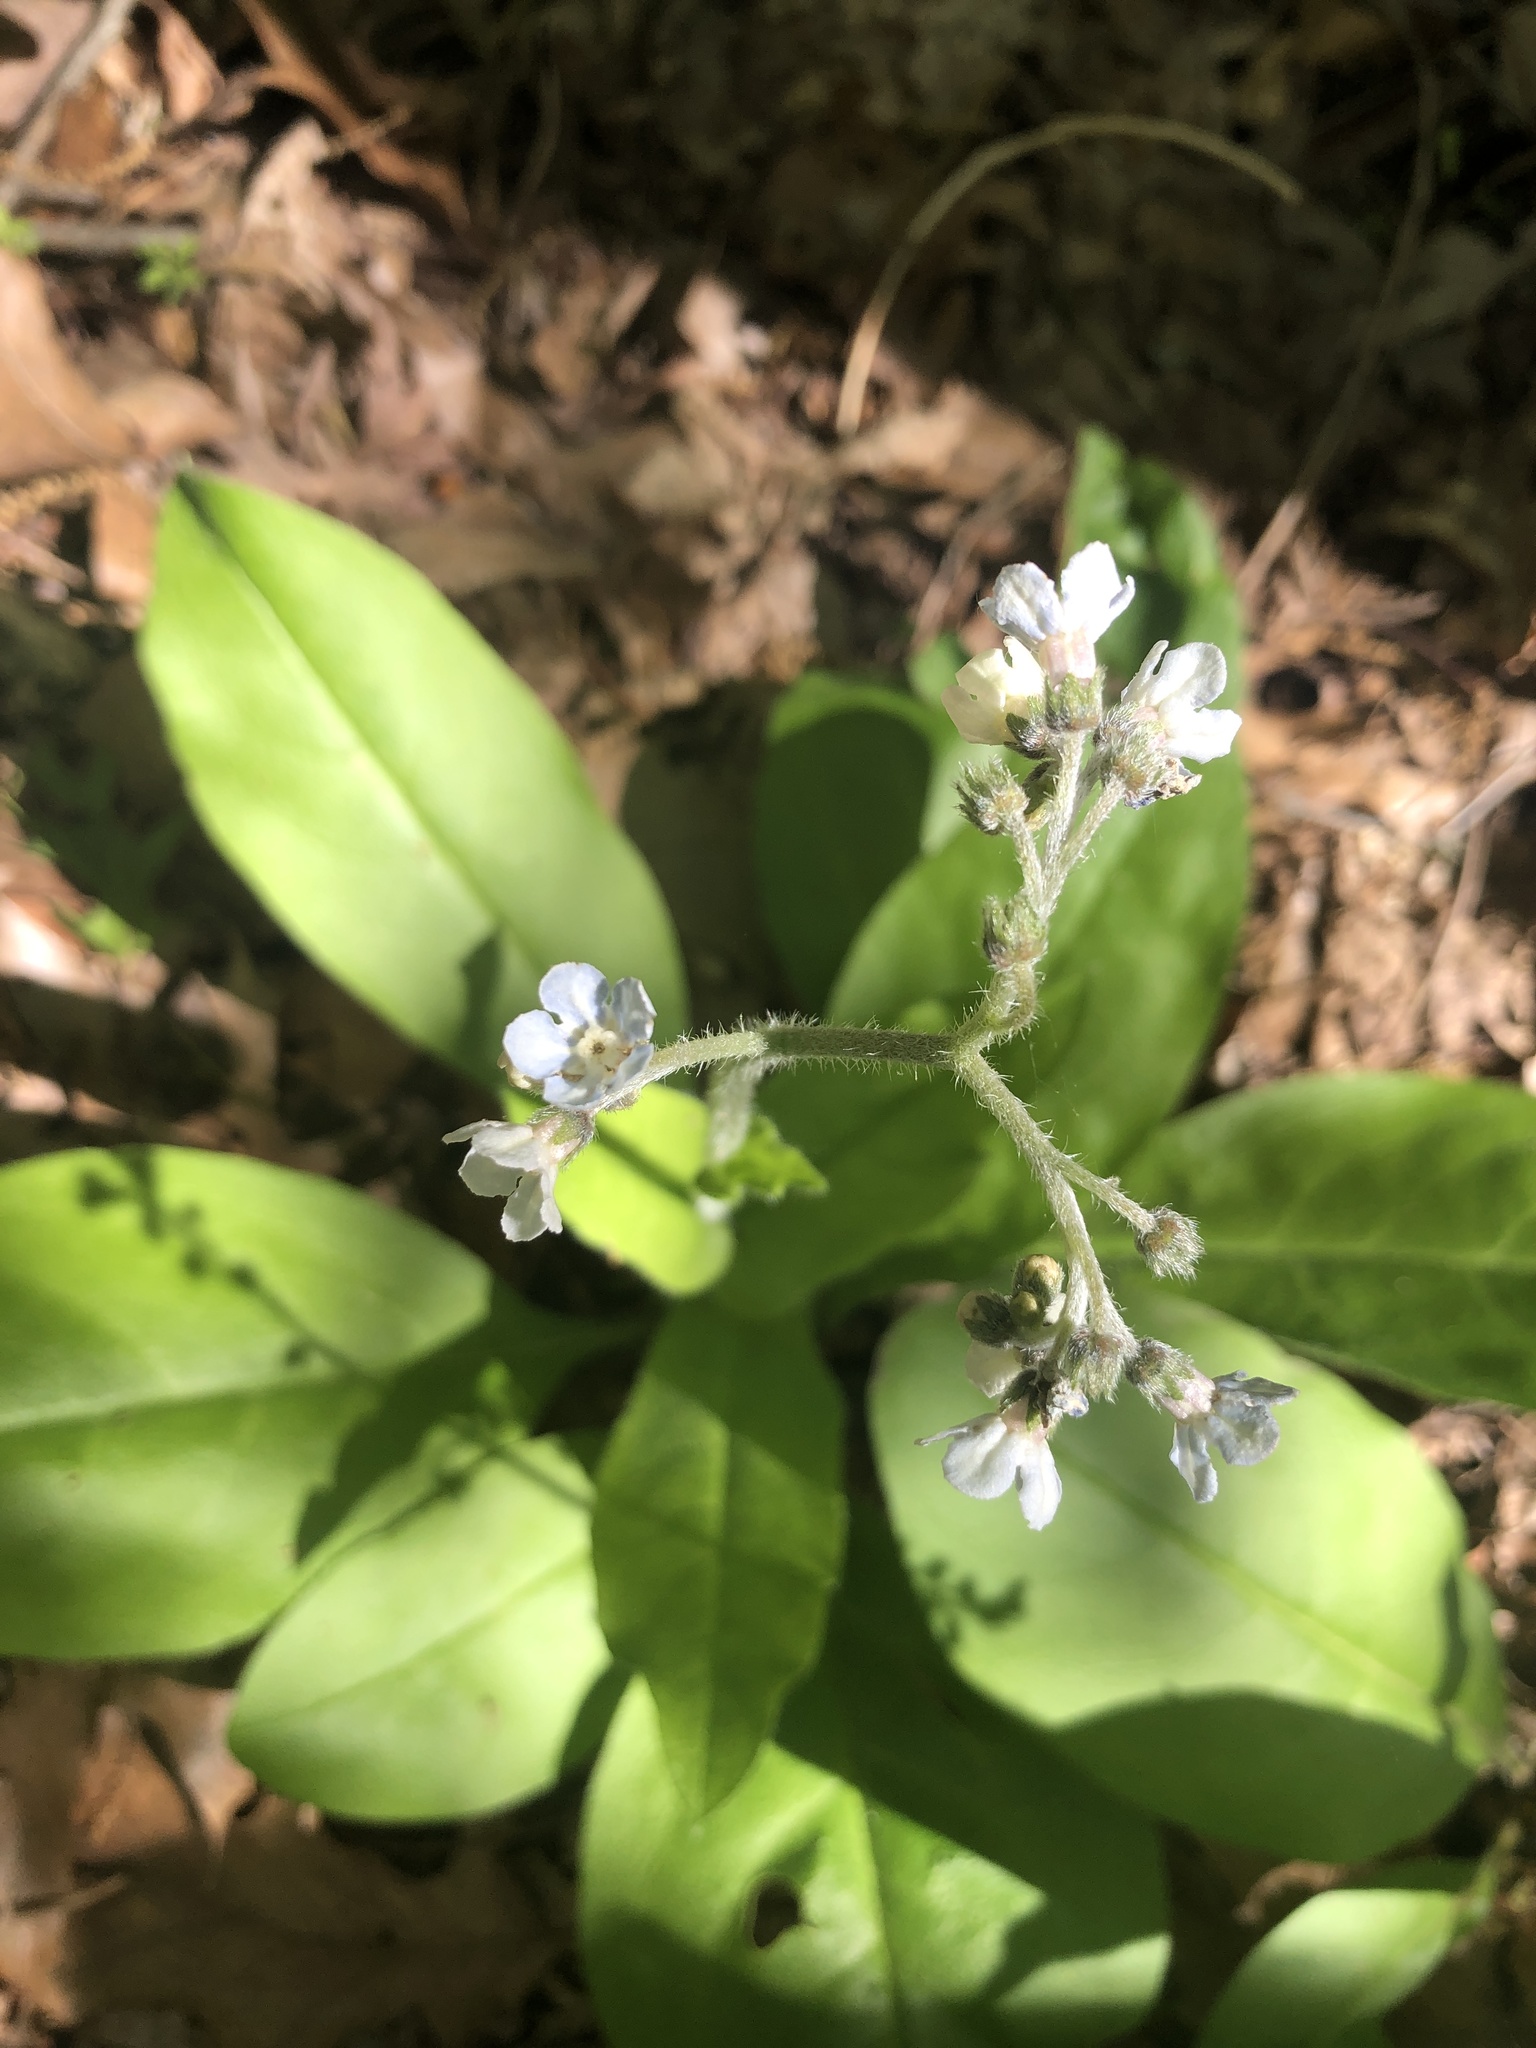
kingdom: Plantae
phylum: Tracheophyta
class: Magnoliopsida
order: Boraginales
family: Boraginaceae
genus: Andersonglossum
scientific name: Andersonglossum virginianum
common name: Wild comfrey
